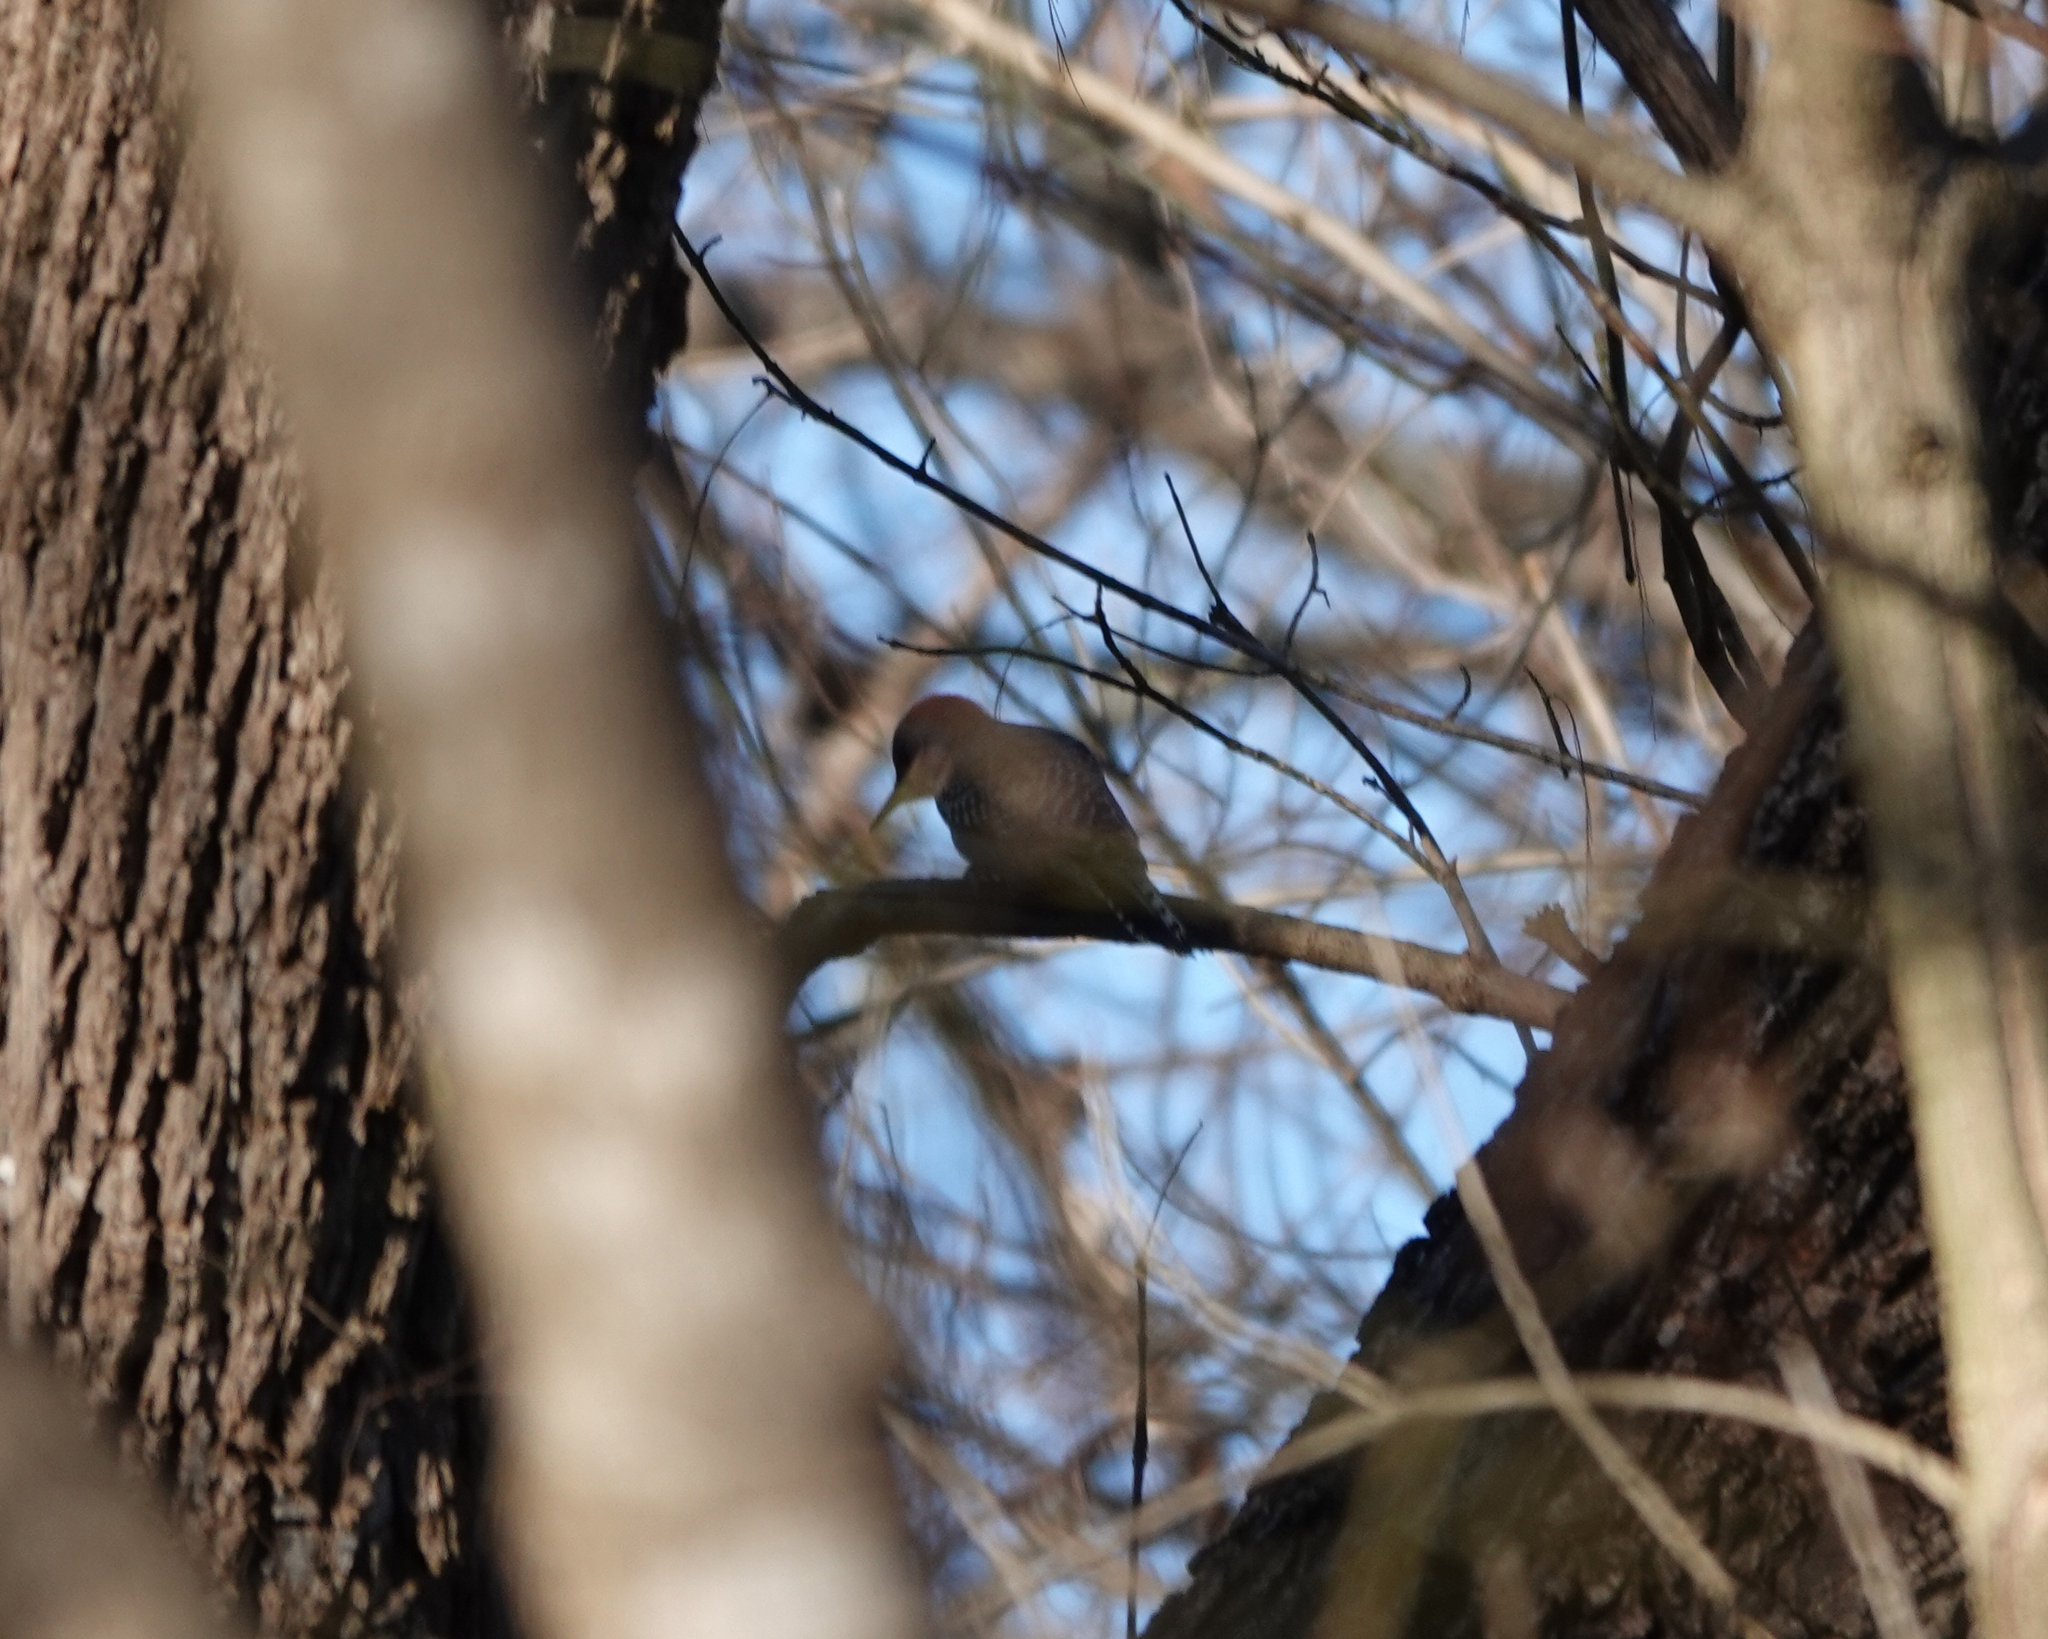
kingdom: Animalia
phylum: Chordata
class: Aves
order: Piciformes
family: Picidae
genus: Melanerpes
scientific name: Melanerpes carolinus
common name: Red-bellied woodpecker
